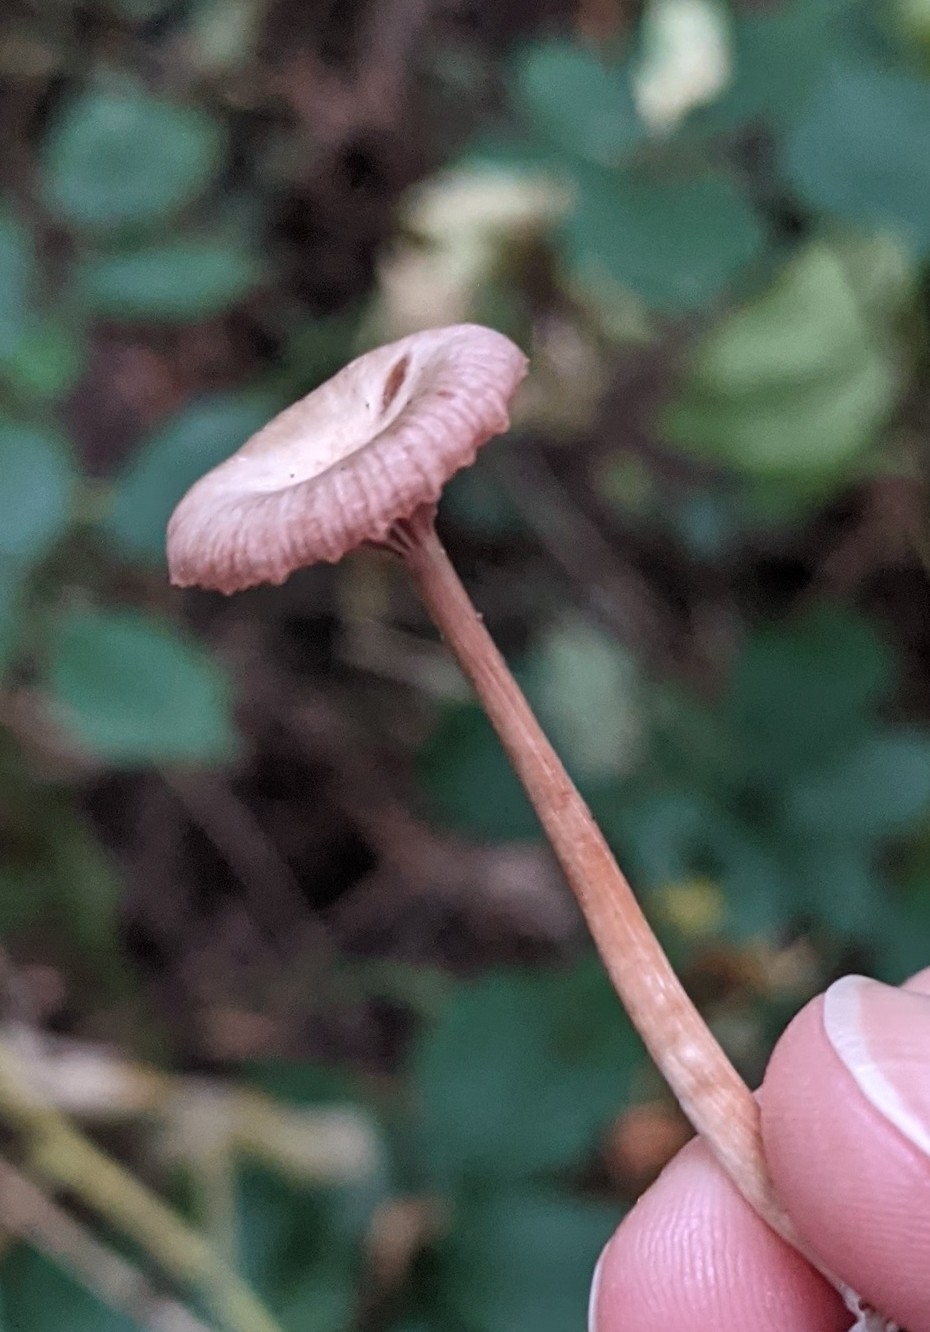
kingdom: Fungi
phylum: Basidiomycota
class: Agaricomycetes
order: Hymenochaetales
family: Rickenellaceae
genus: Contumyces
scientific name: Contumyces rosellus
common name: Rosy navel
